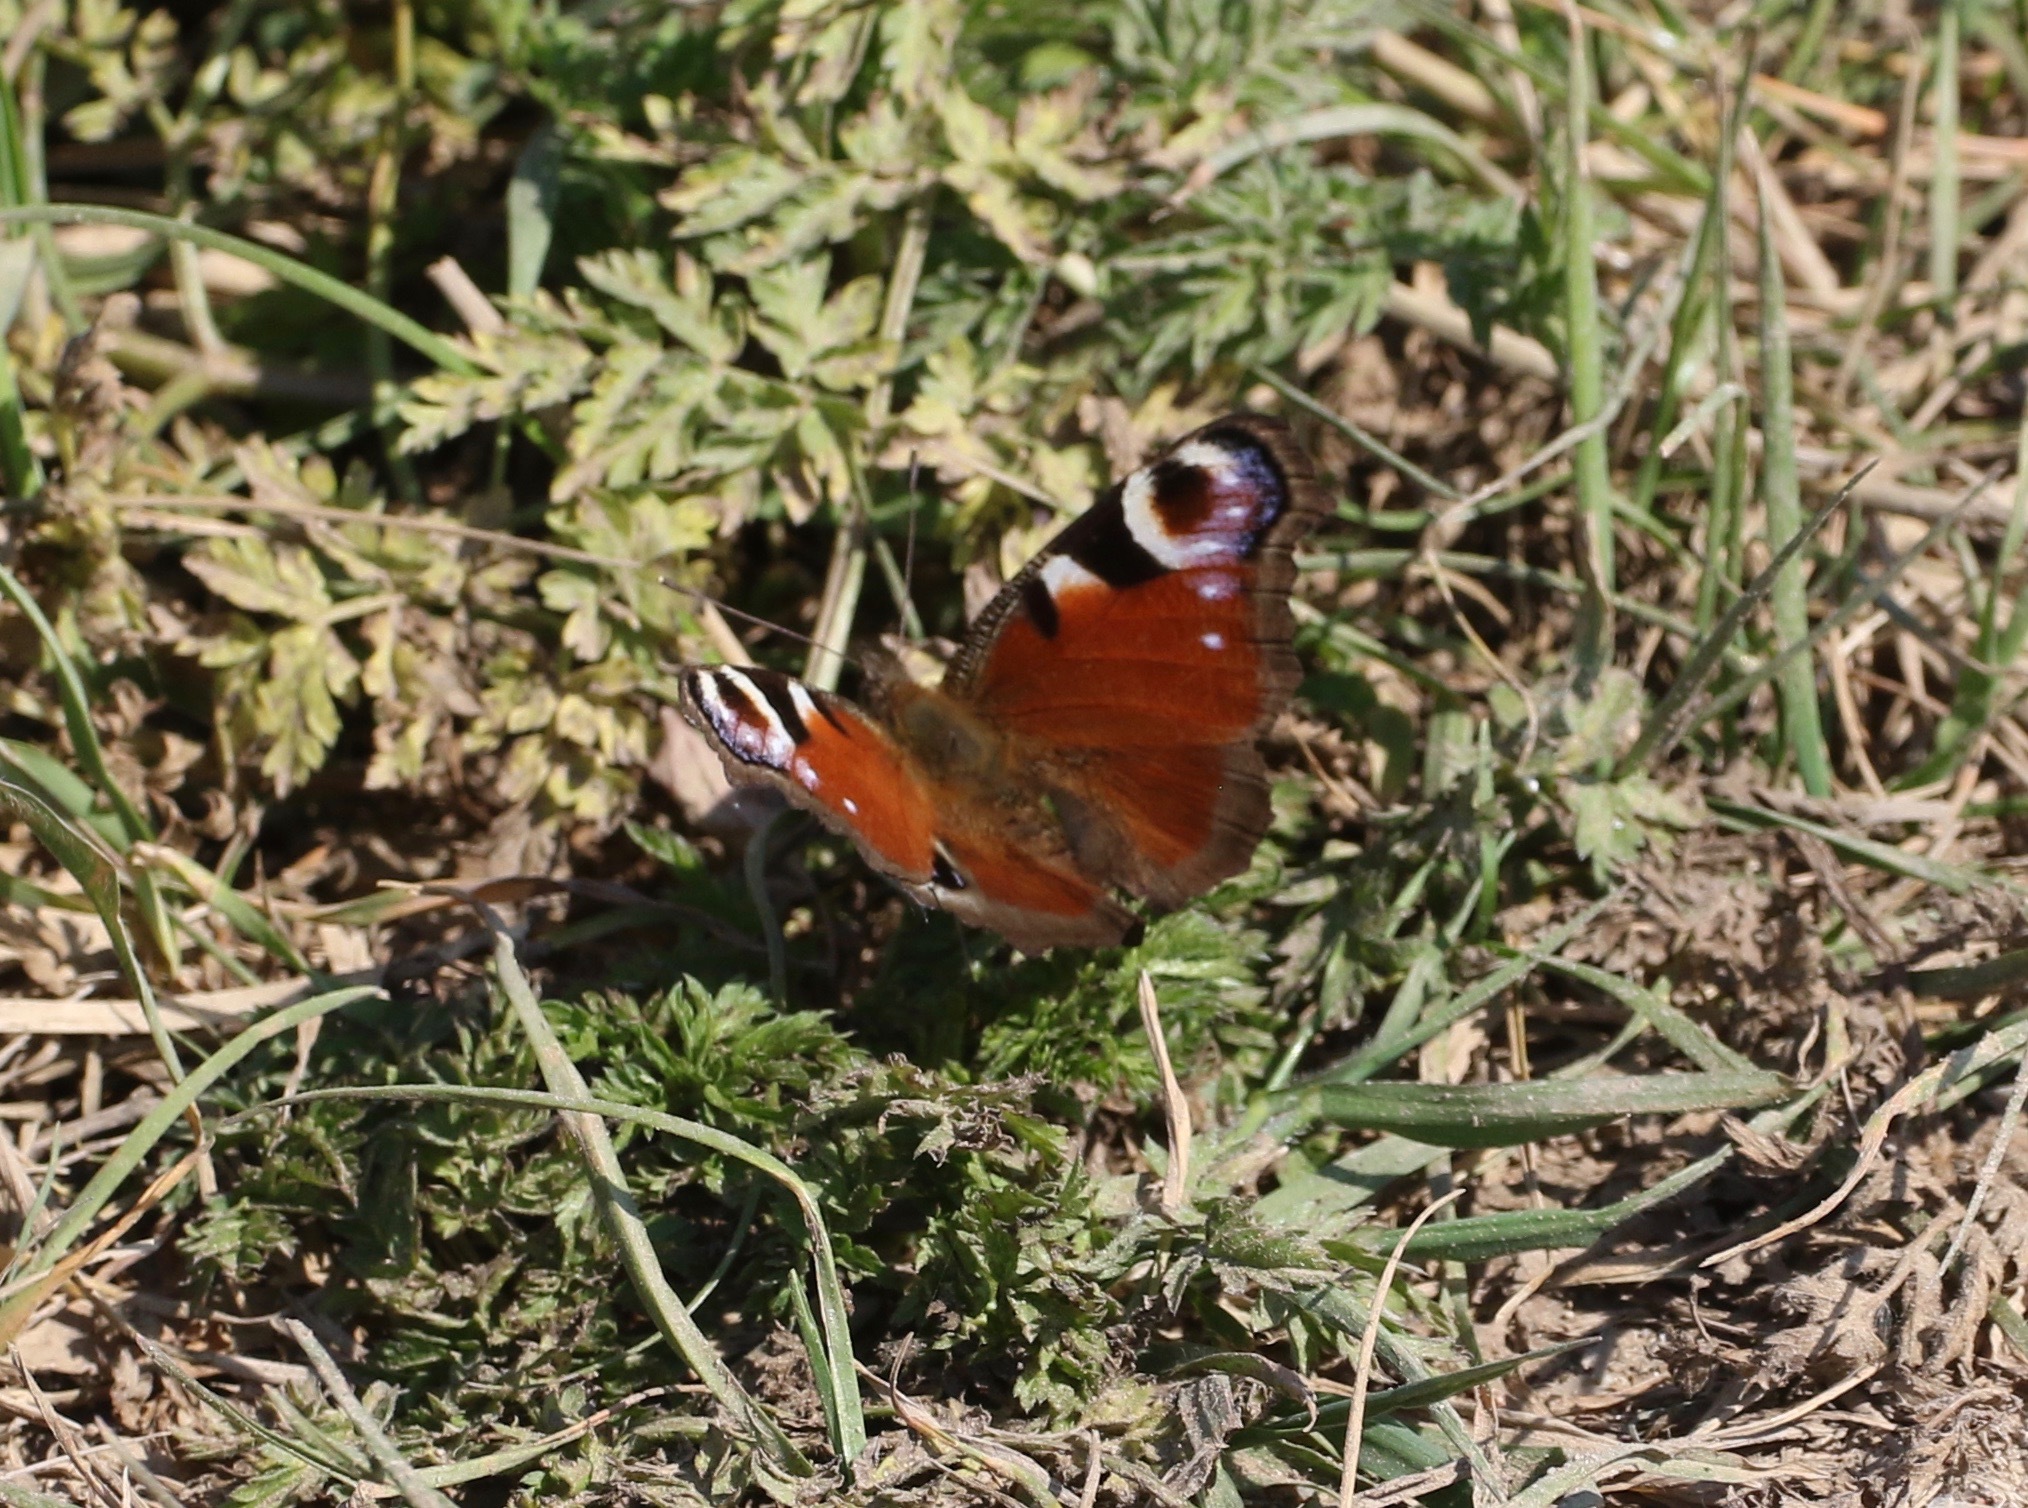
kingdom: Animalia
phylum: Arthropoda
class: Insecta
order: Lepidoptera
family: Nymphalidae
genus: Aglais
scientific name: Aglais io
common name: Peacock
